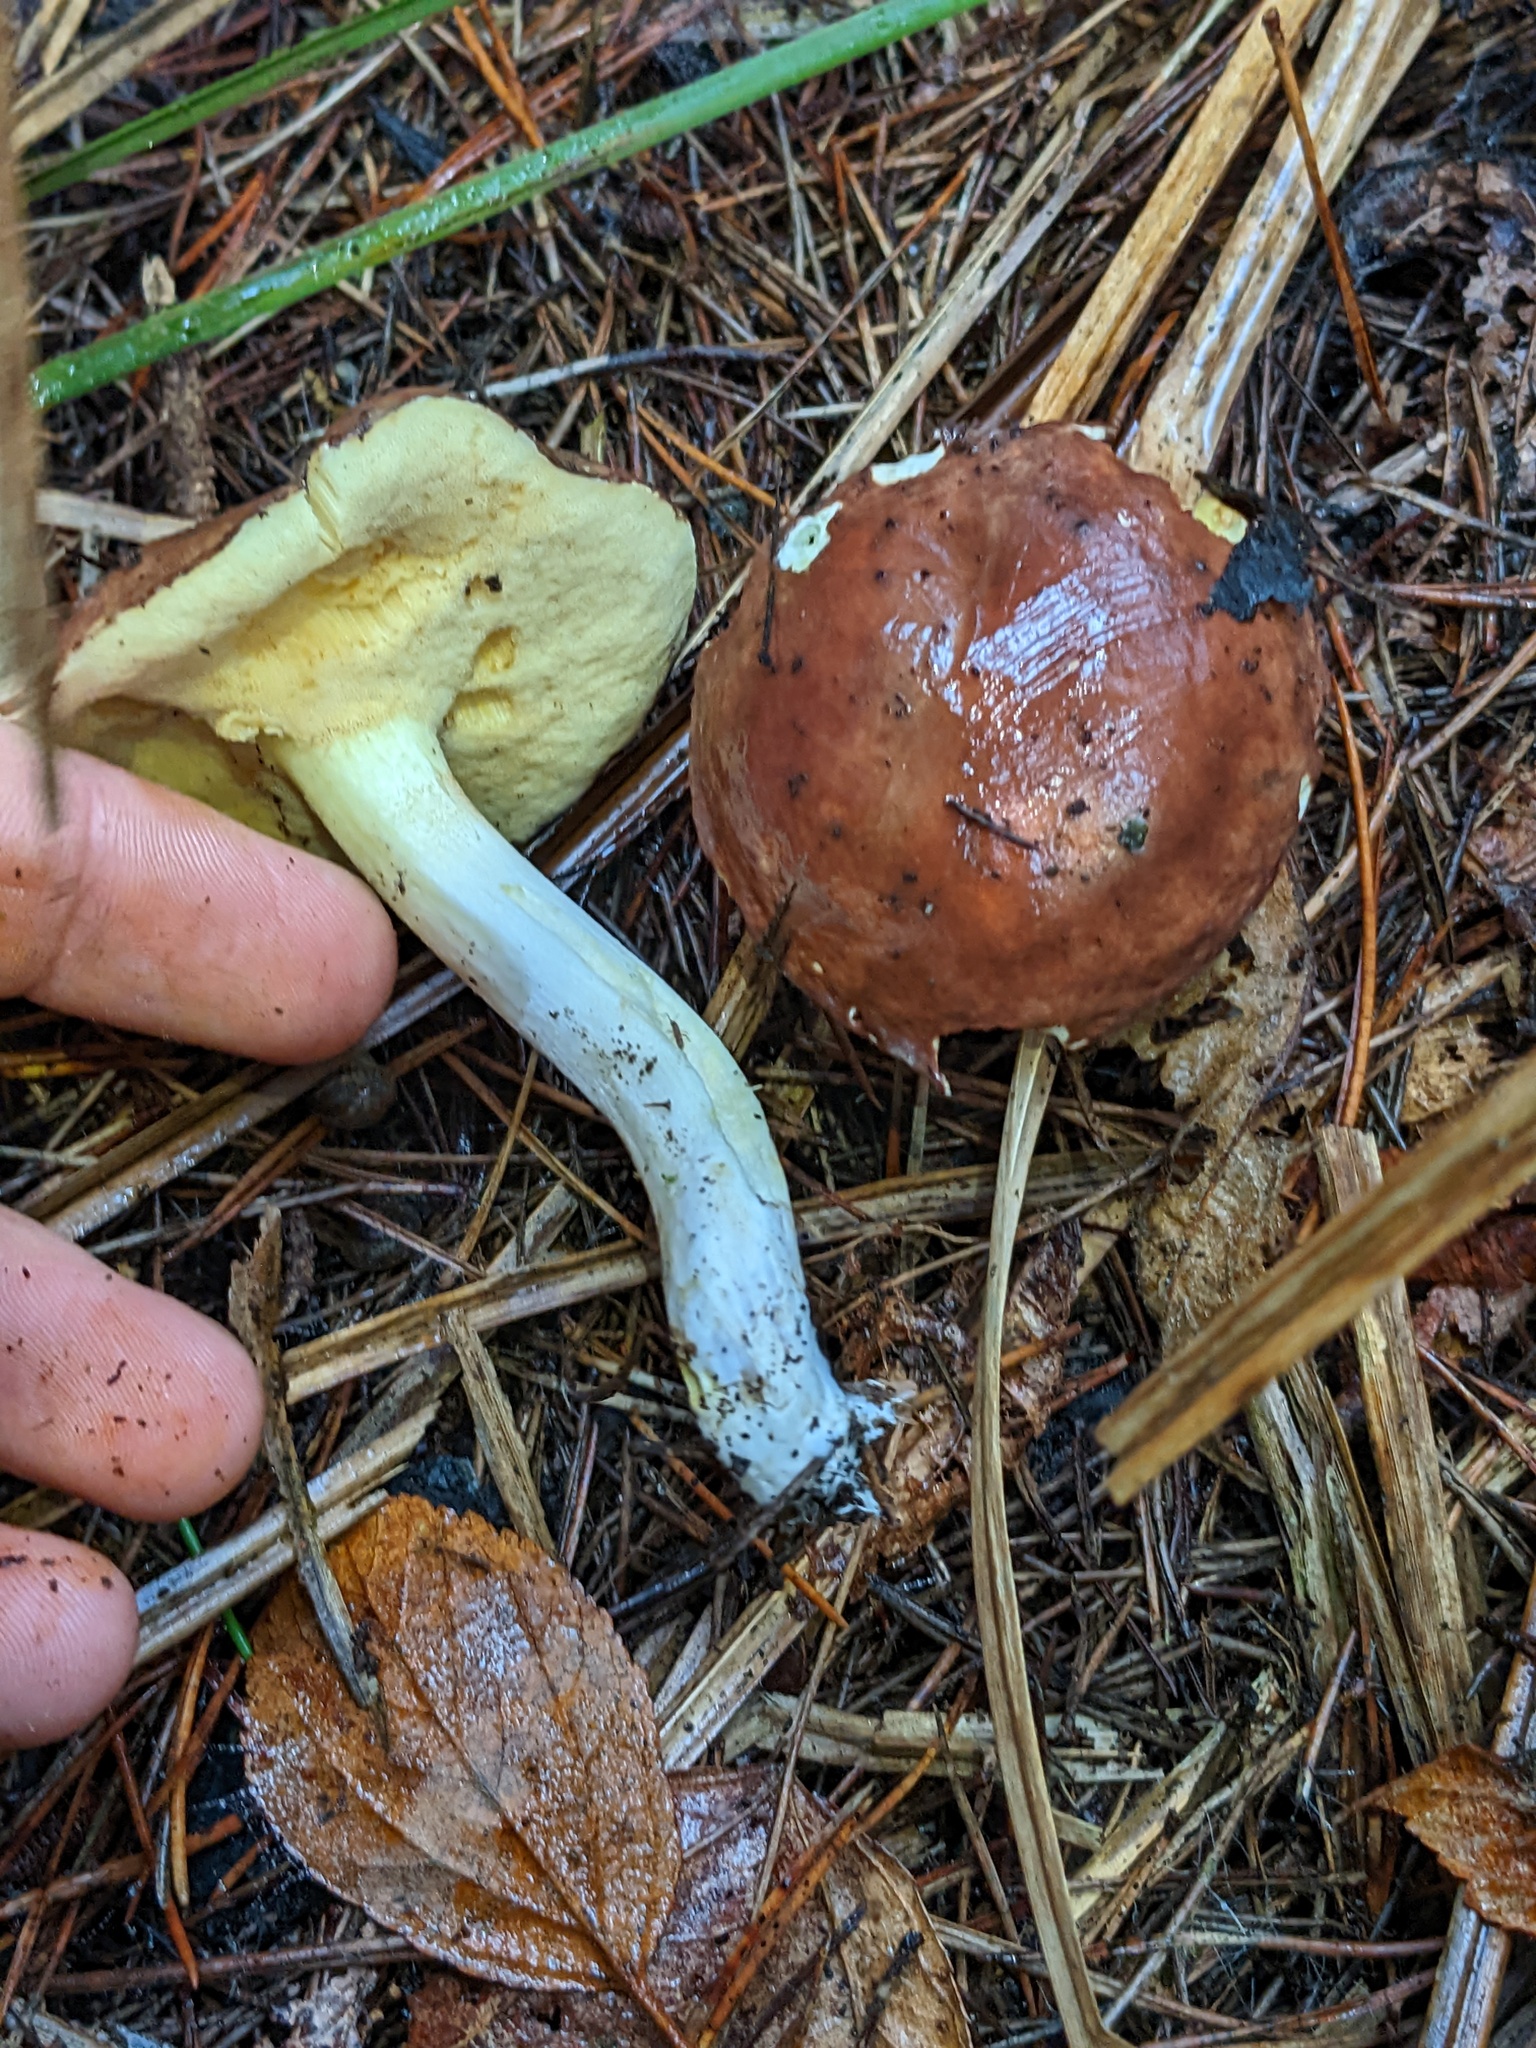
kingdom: Fungi
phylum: Basidiomycota
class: Agaricomycetes
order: Boletales
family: Suillaceae
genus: Suillus
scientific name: Suillus brevipes
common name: Short-stalked suillus
